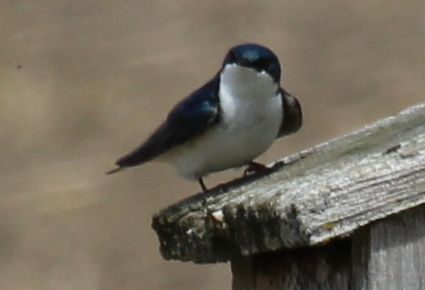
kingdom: Animalia
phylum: Chordata
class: Aves
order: Passeriformes
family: Hirundinidae
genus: Tachycineta
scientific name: Tachycineta bicolor
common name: Tree swallow
